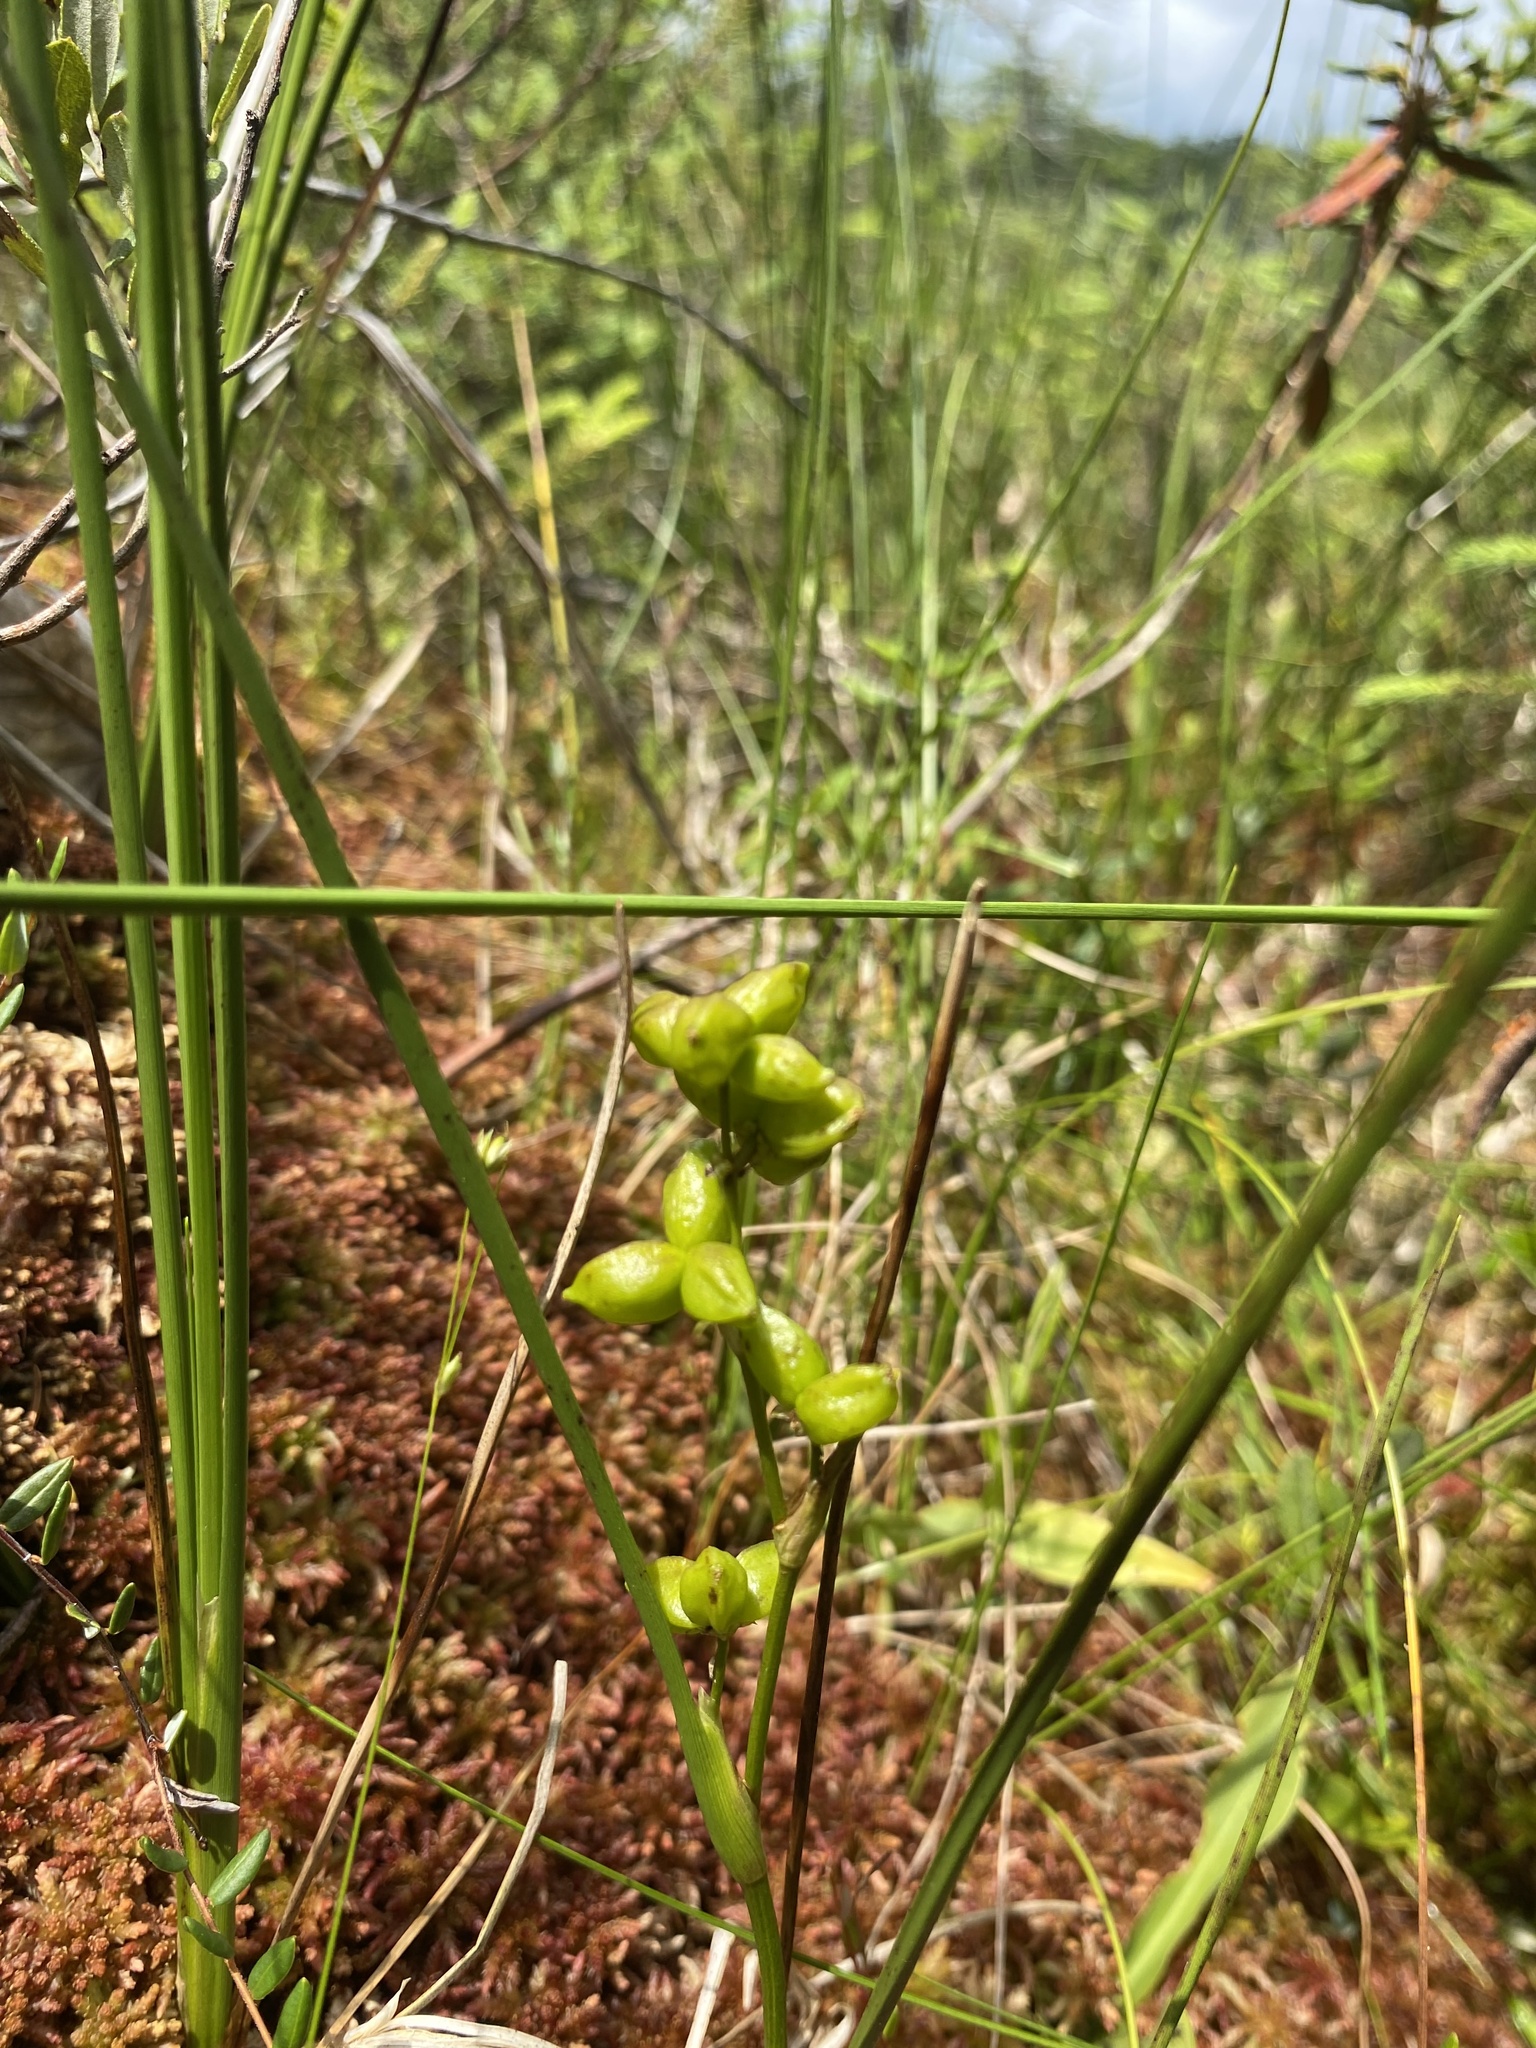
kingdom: Plantae
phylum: Tracheophyta
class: Liliopsida
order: Alismatales
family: Scheuchzeriaceae
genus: Scheuchzeria
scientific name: Scheuchzeria palustris
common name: Rannoch-rush
